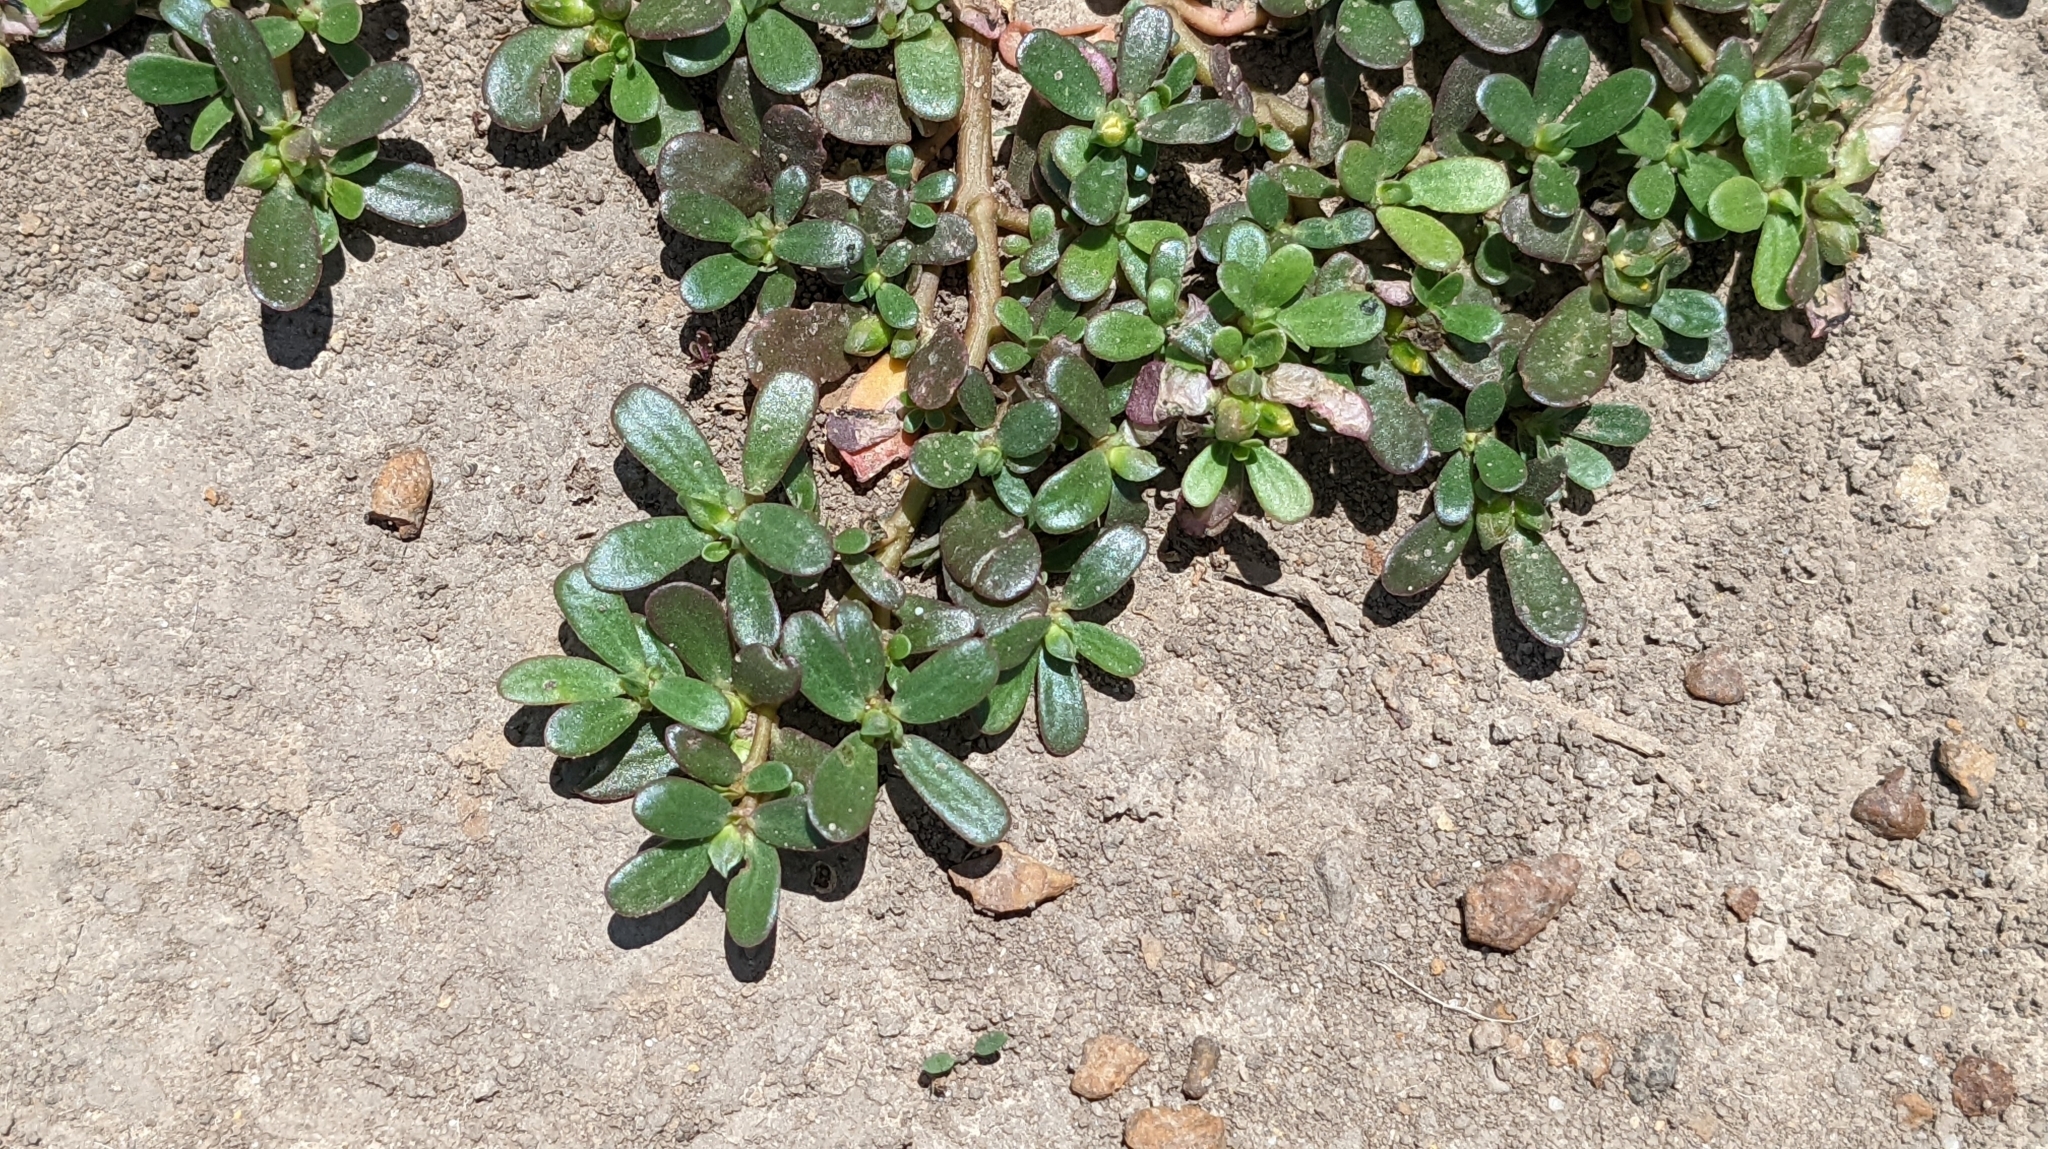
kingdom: Plantae
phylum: Tracheophyta
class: Magnoliopsida
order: Caryophyllales
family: Portulacaceae
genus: Portulaca
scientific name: Portulaca oleracea
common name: Common purslane
